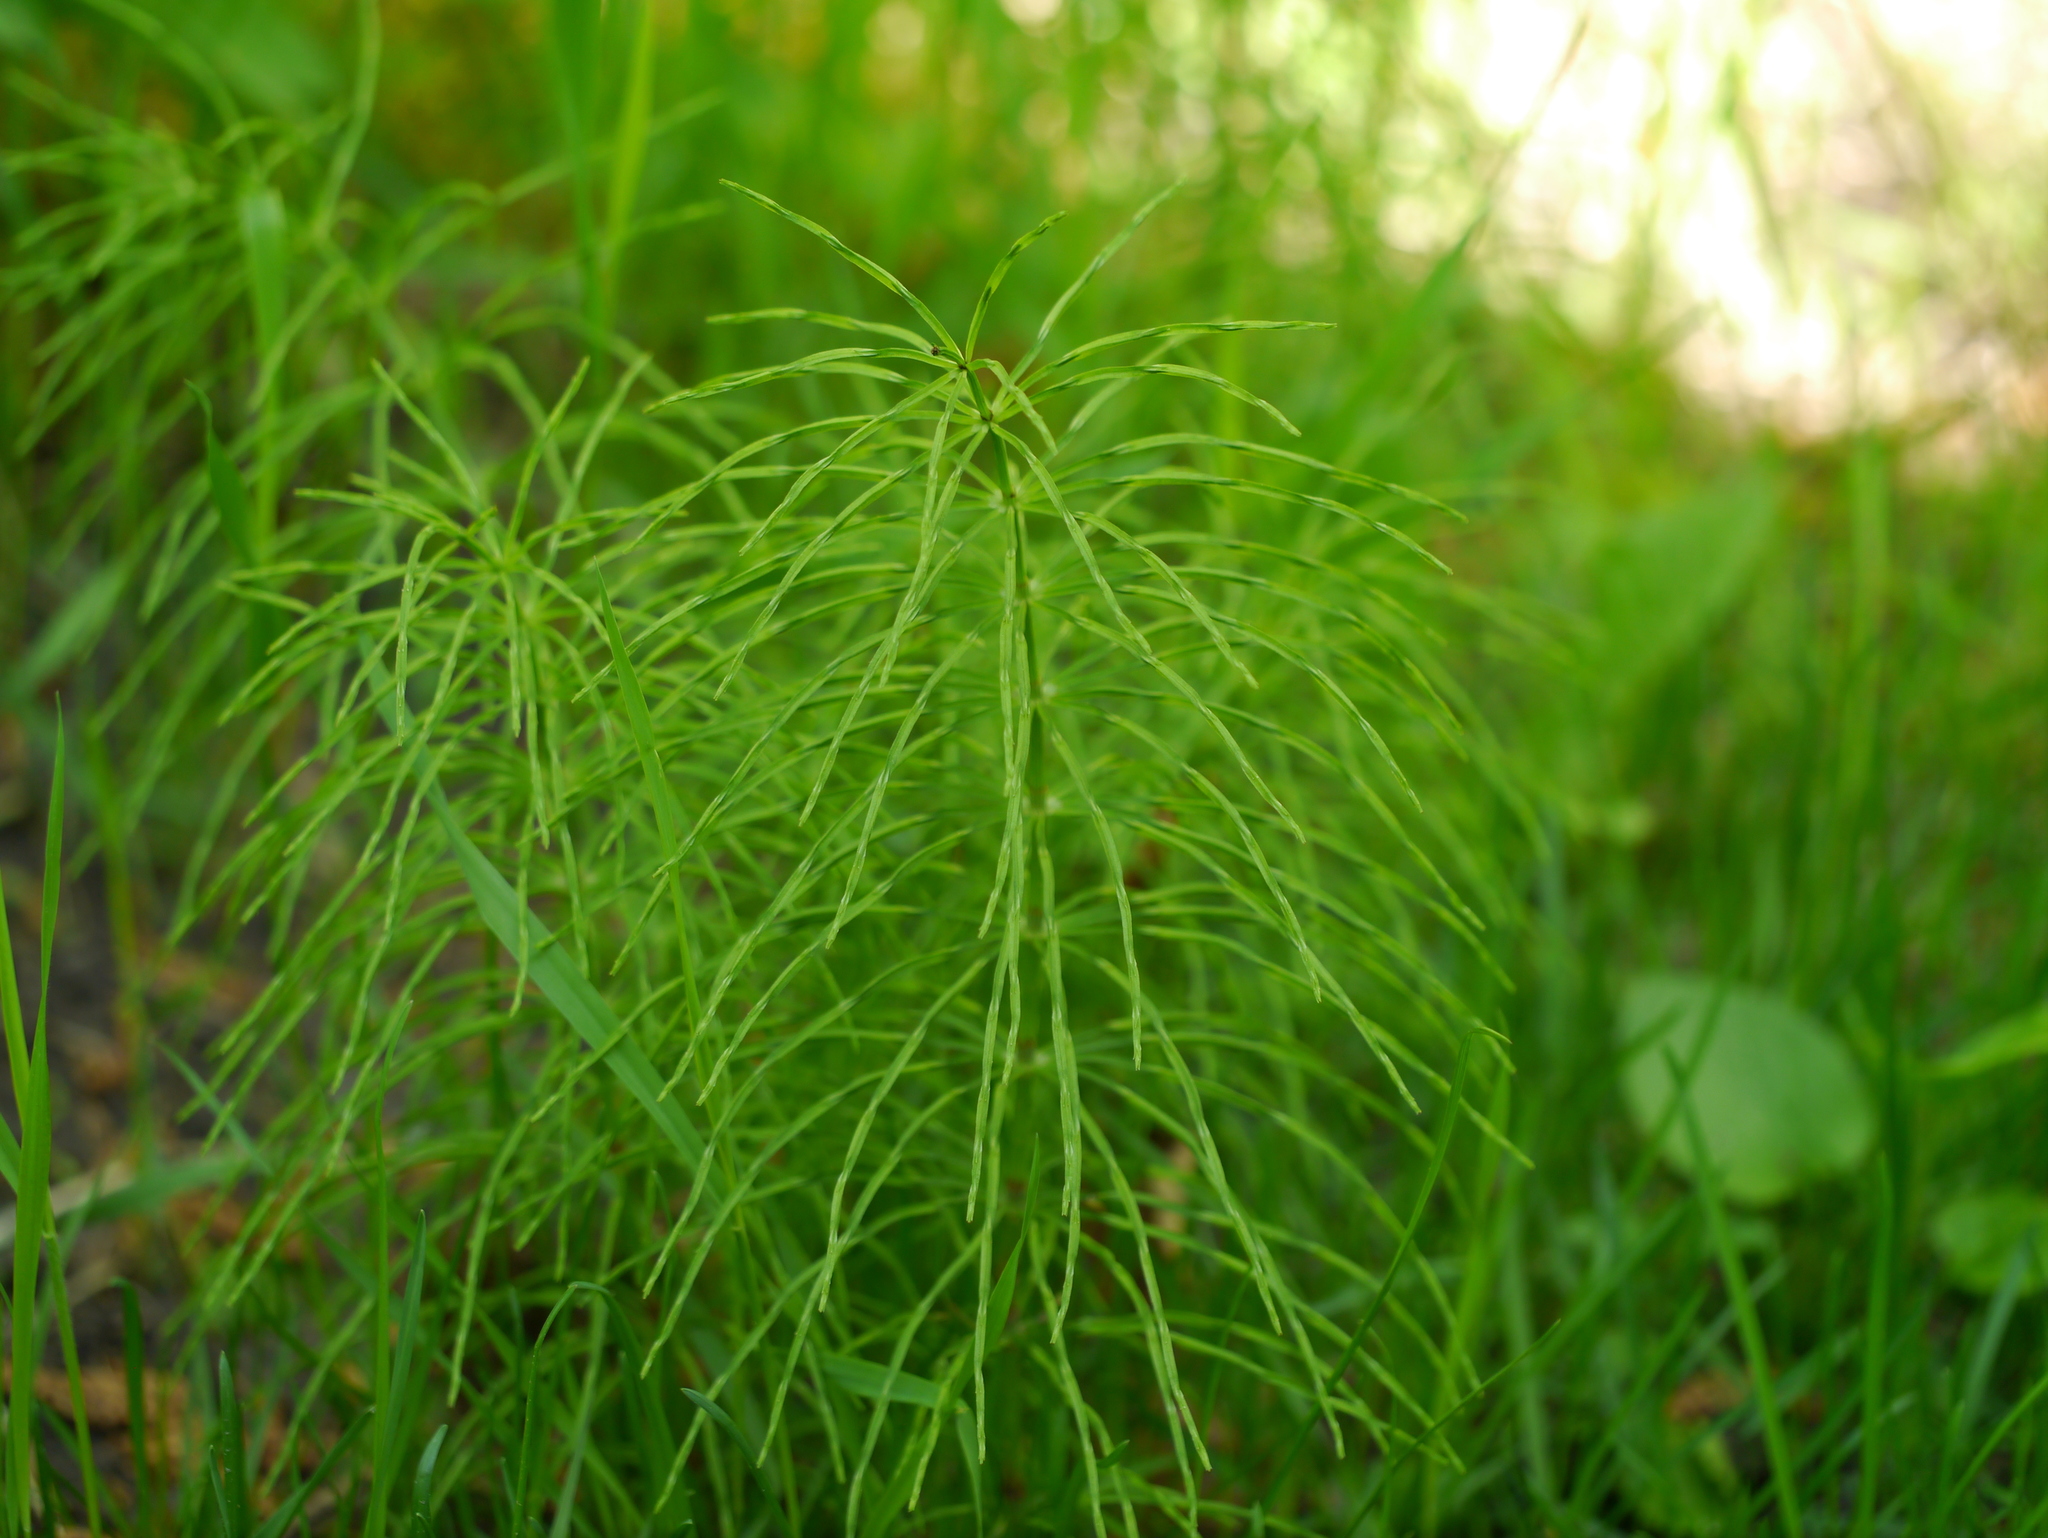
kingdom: Plantae
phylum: Tracheophyta
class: Polypodiopsida
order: Equisetales
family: Equisetaceae
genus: Equisetum
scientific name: Equisetum arvense
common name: Field horsetail
